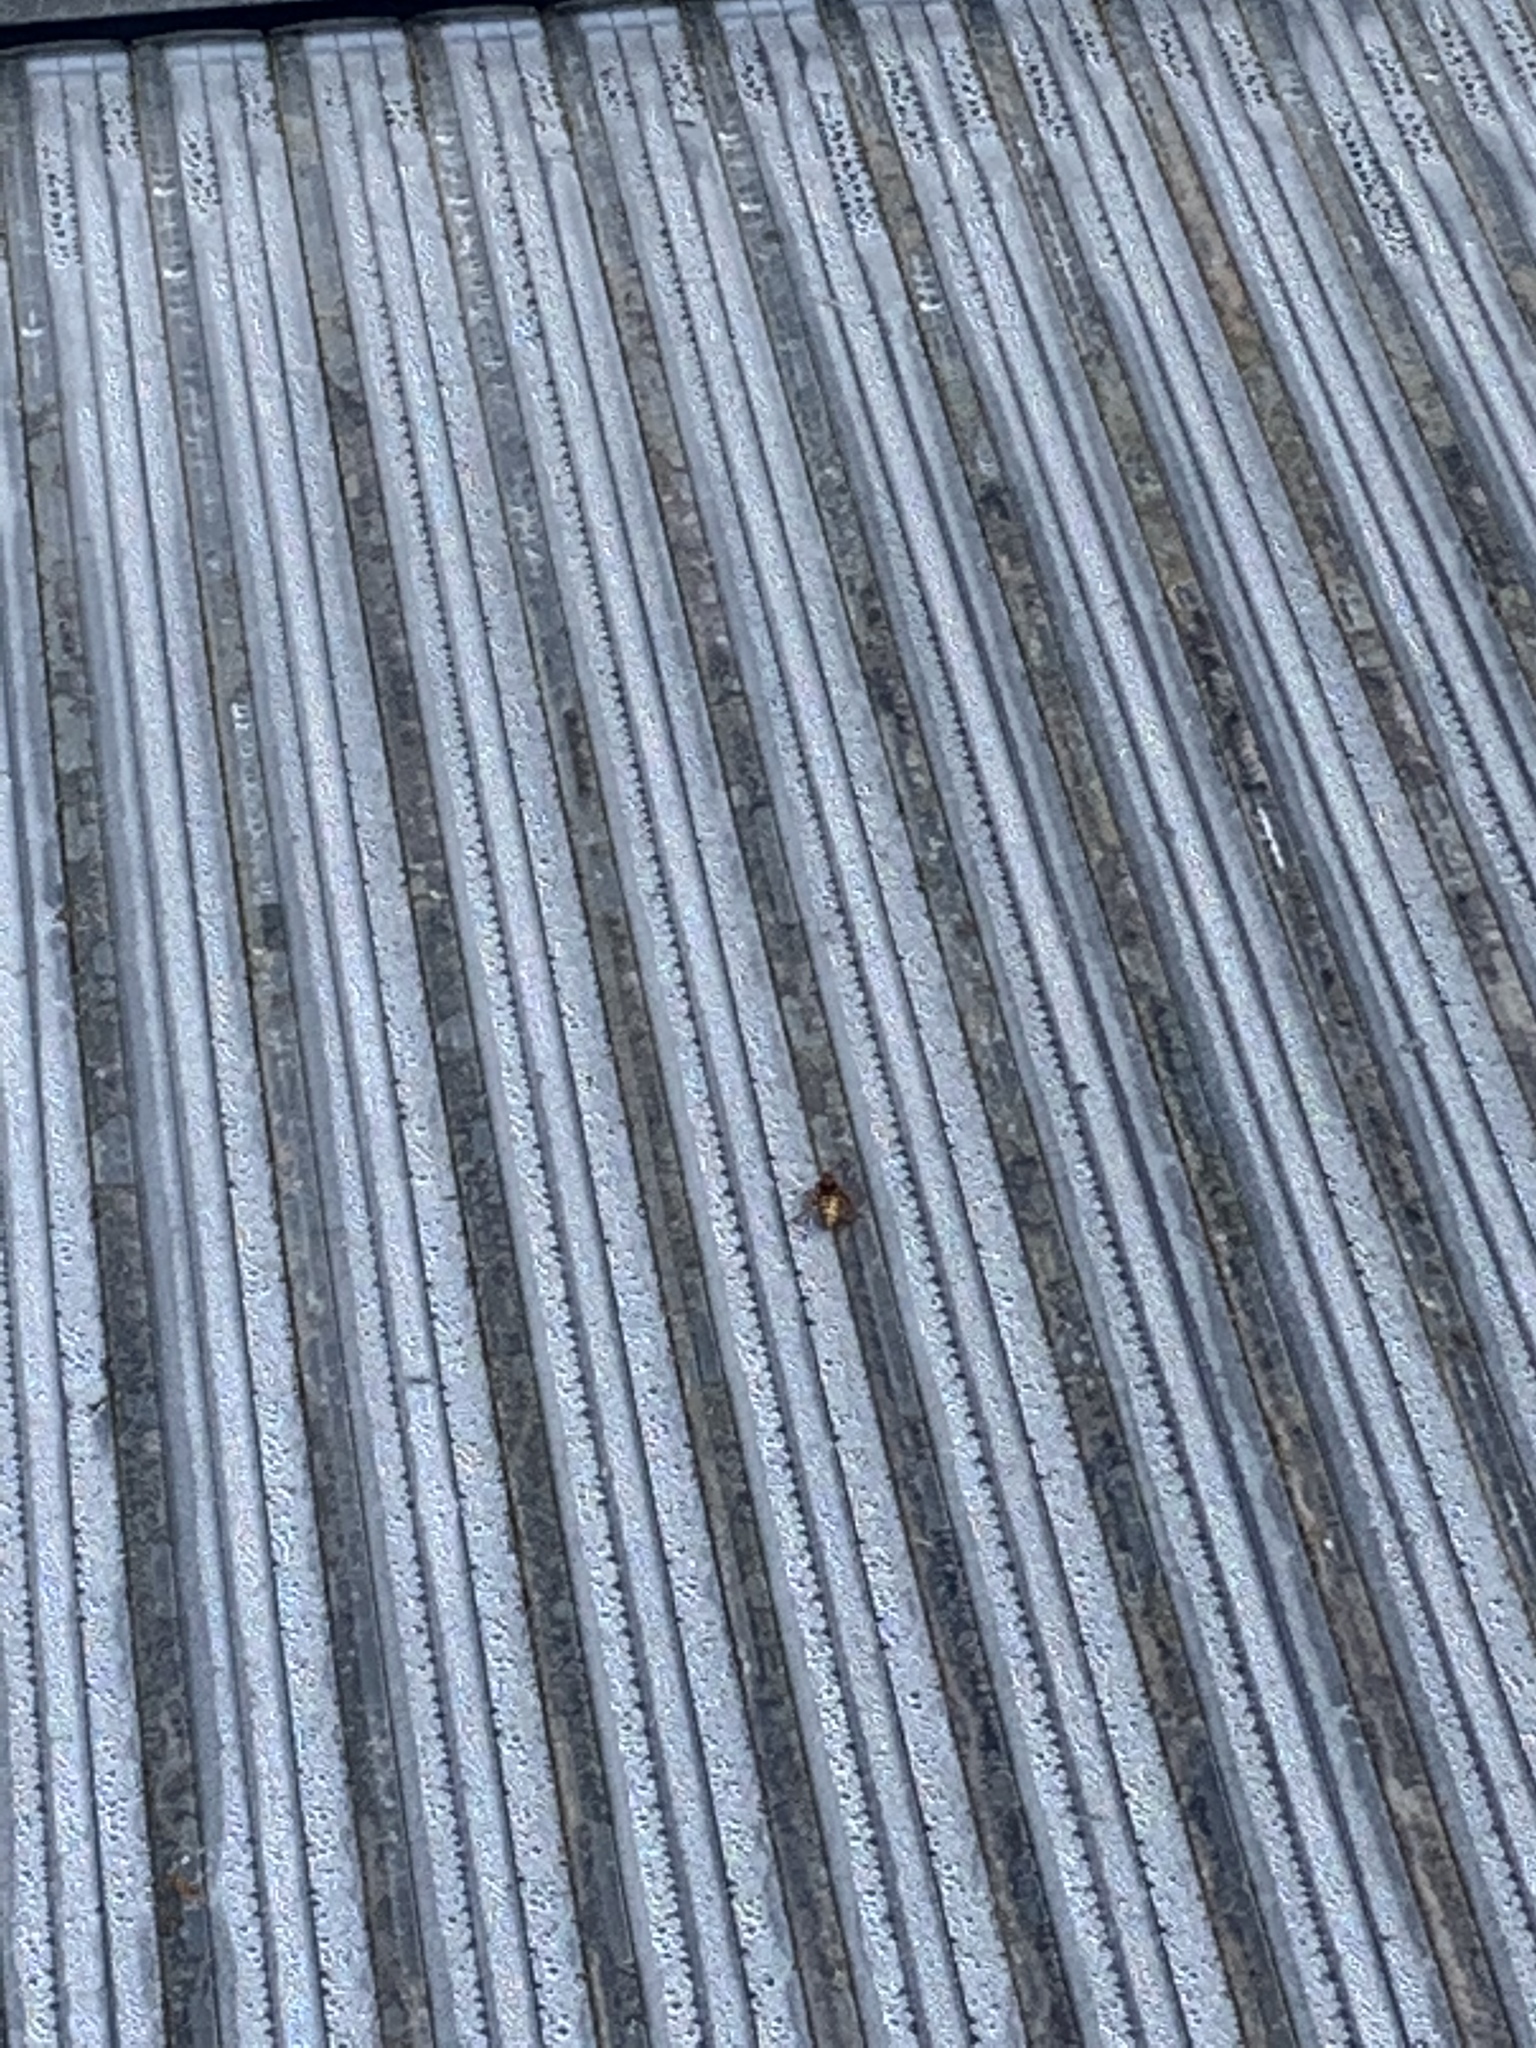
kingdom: Animalia
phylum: Arthropoda
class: Insecta
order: Hymenoptera
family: Vespidae
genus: Vespa
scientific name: Vespa crabro
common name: Hornet
